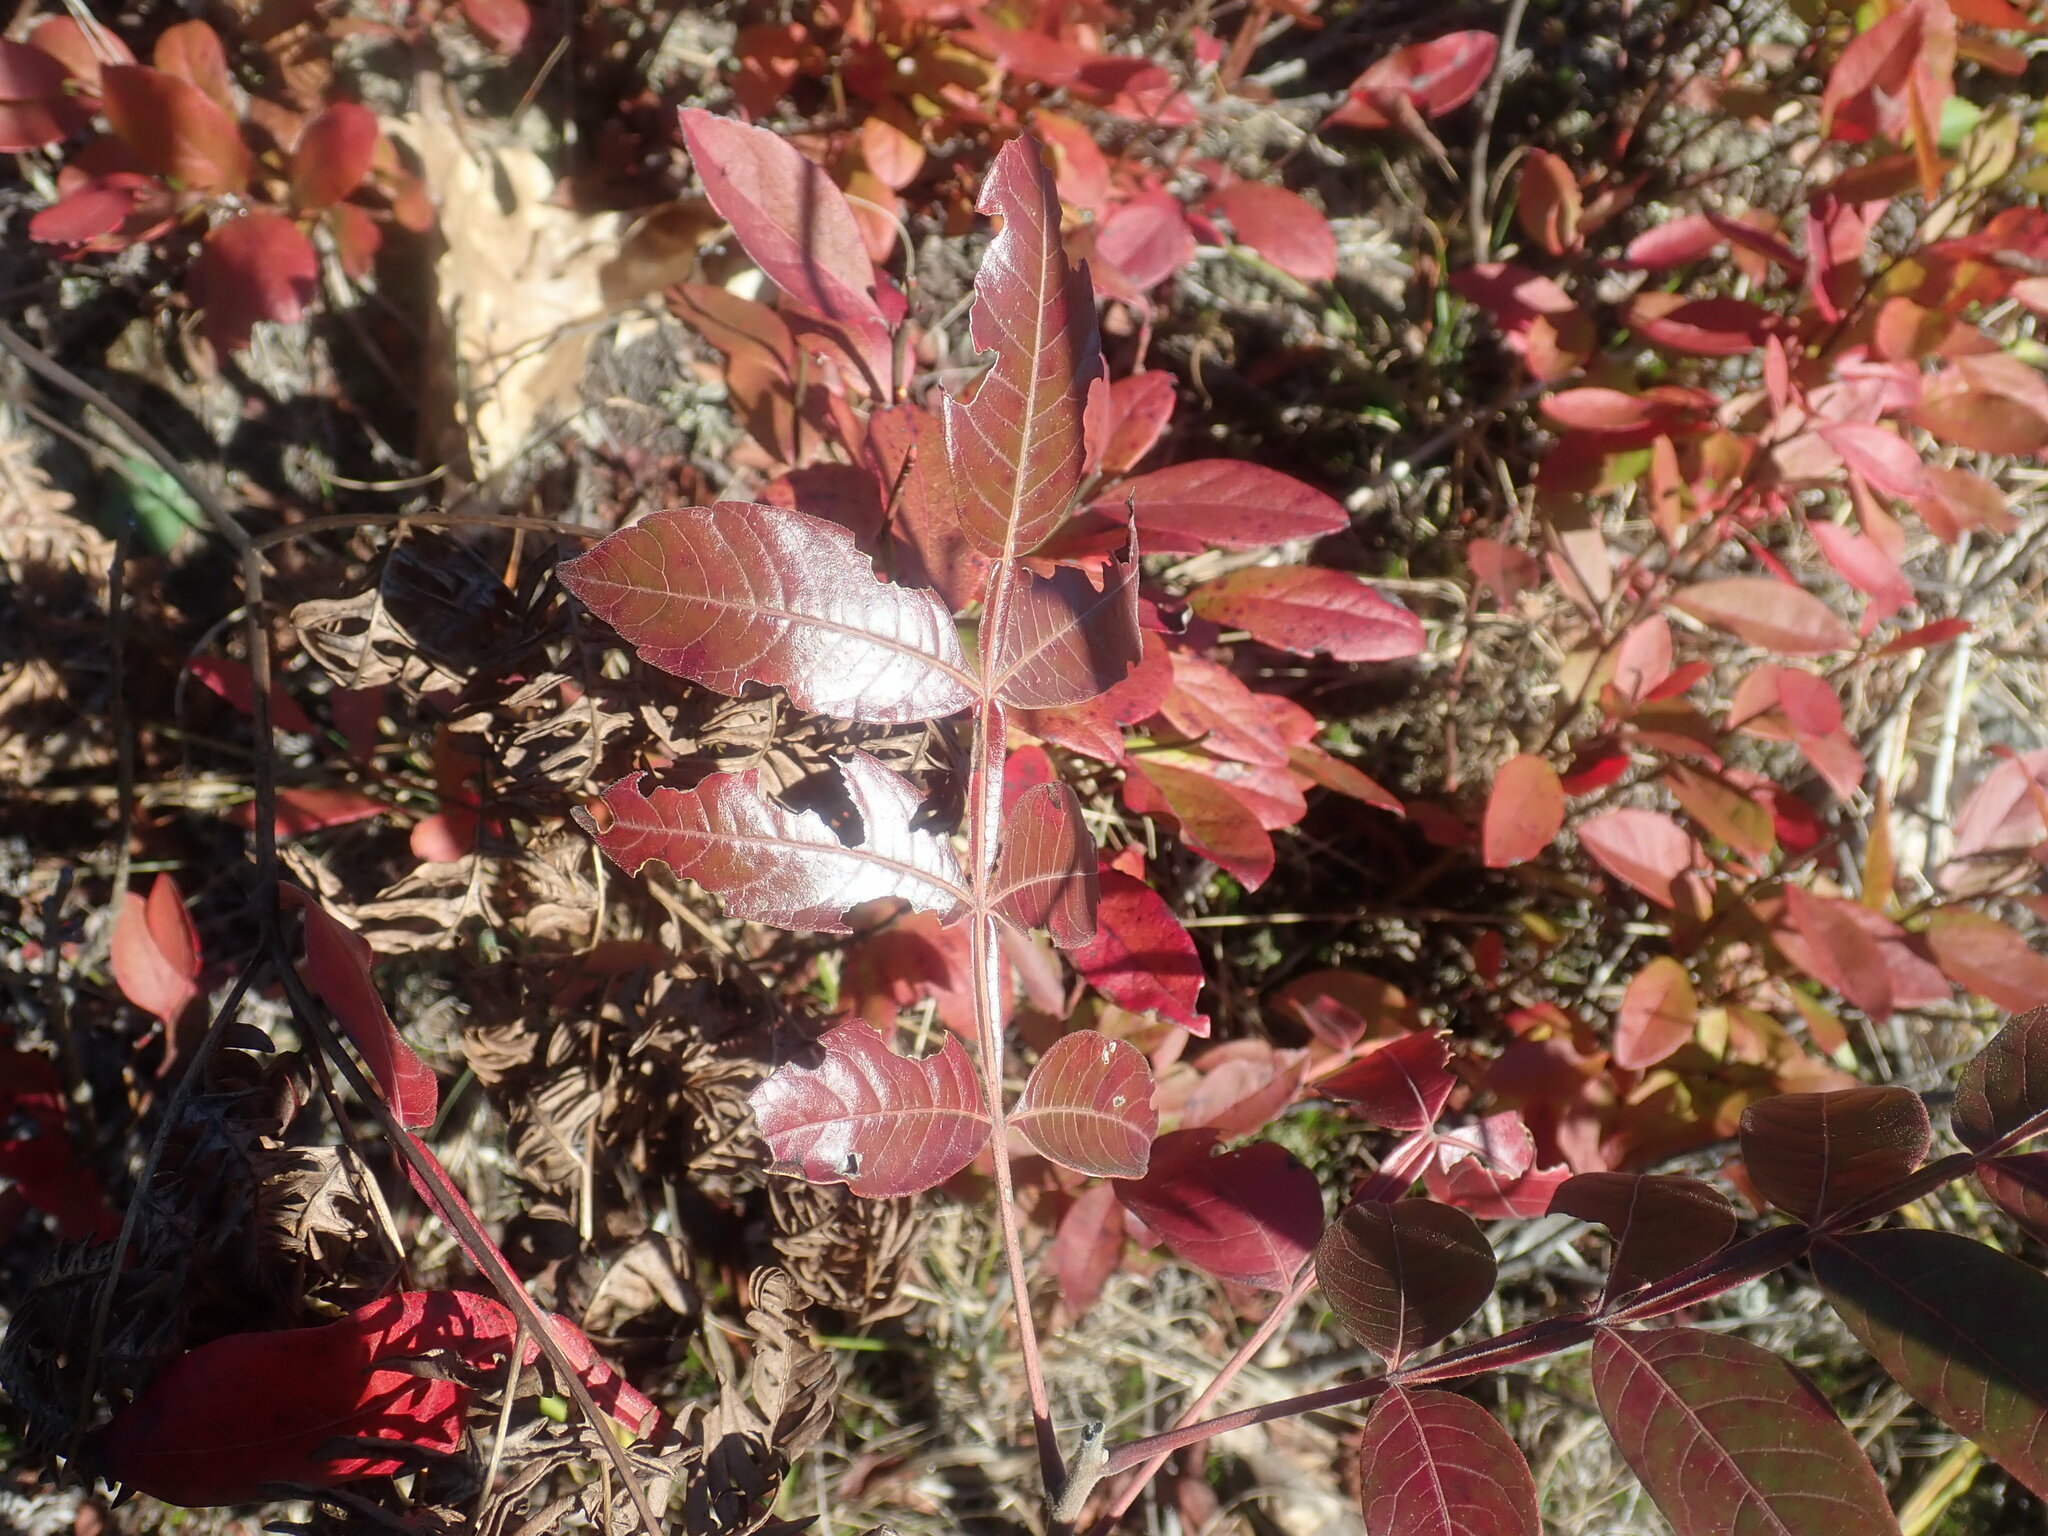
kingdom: Plantae
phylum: Tracheophyta
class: Magnoliopsida
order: Sapindales
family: Anacardiaceae
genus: Rhus
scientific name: Rhus copallina
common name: Shining sumac
